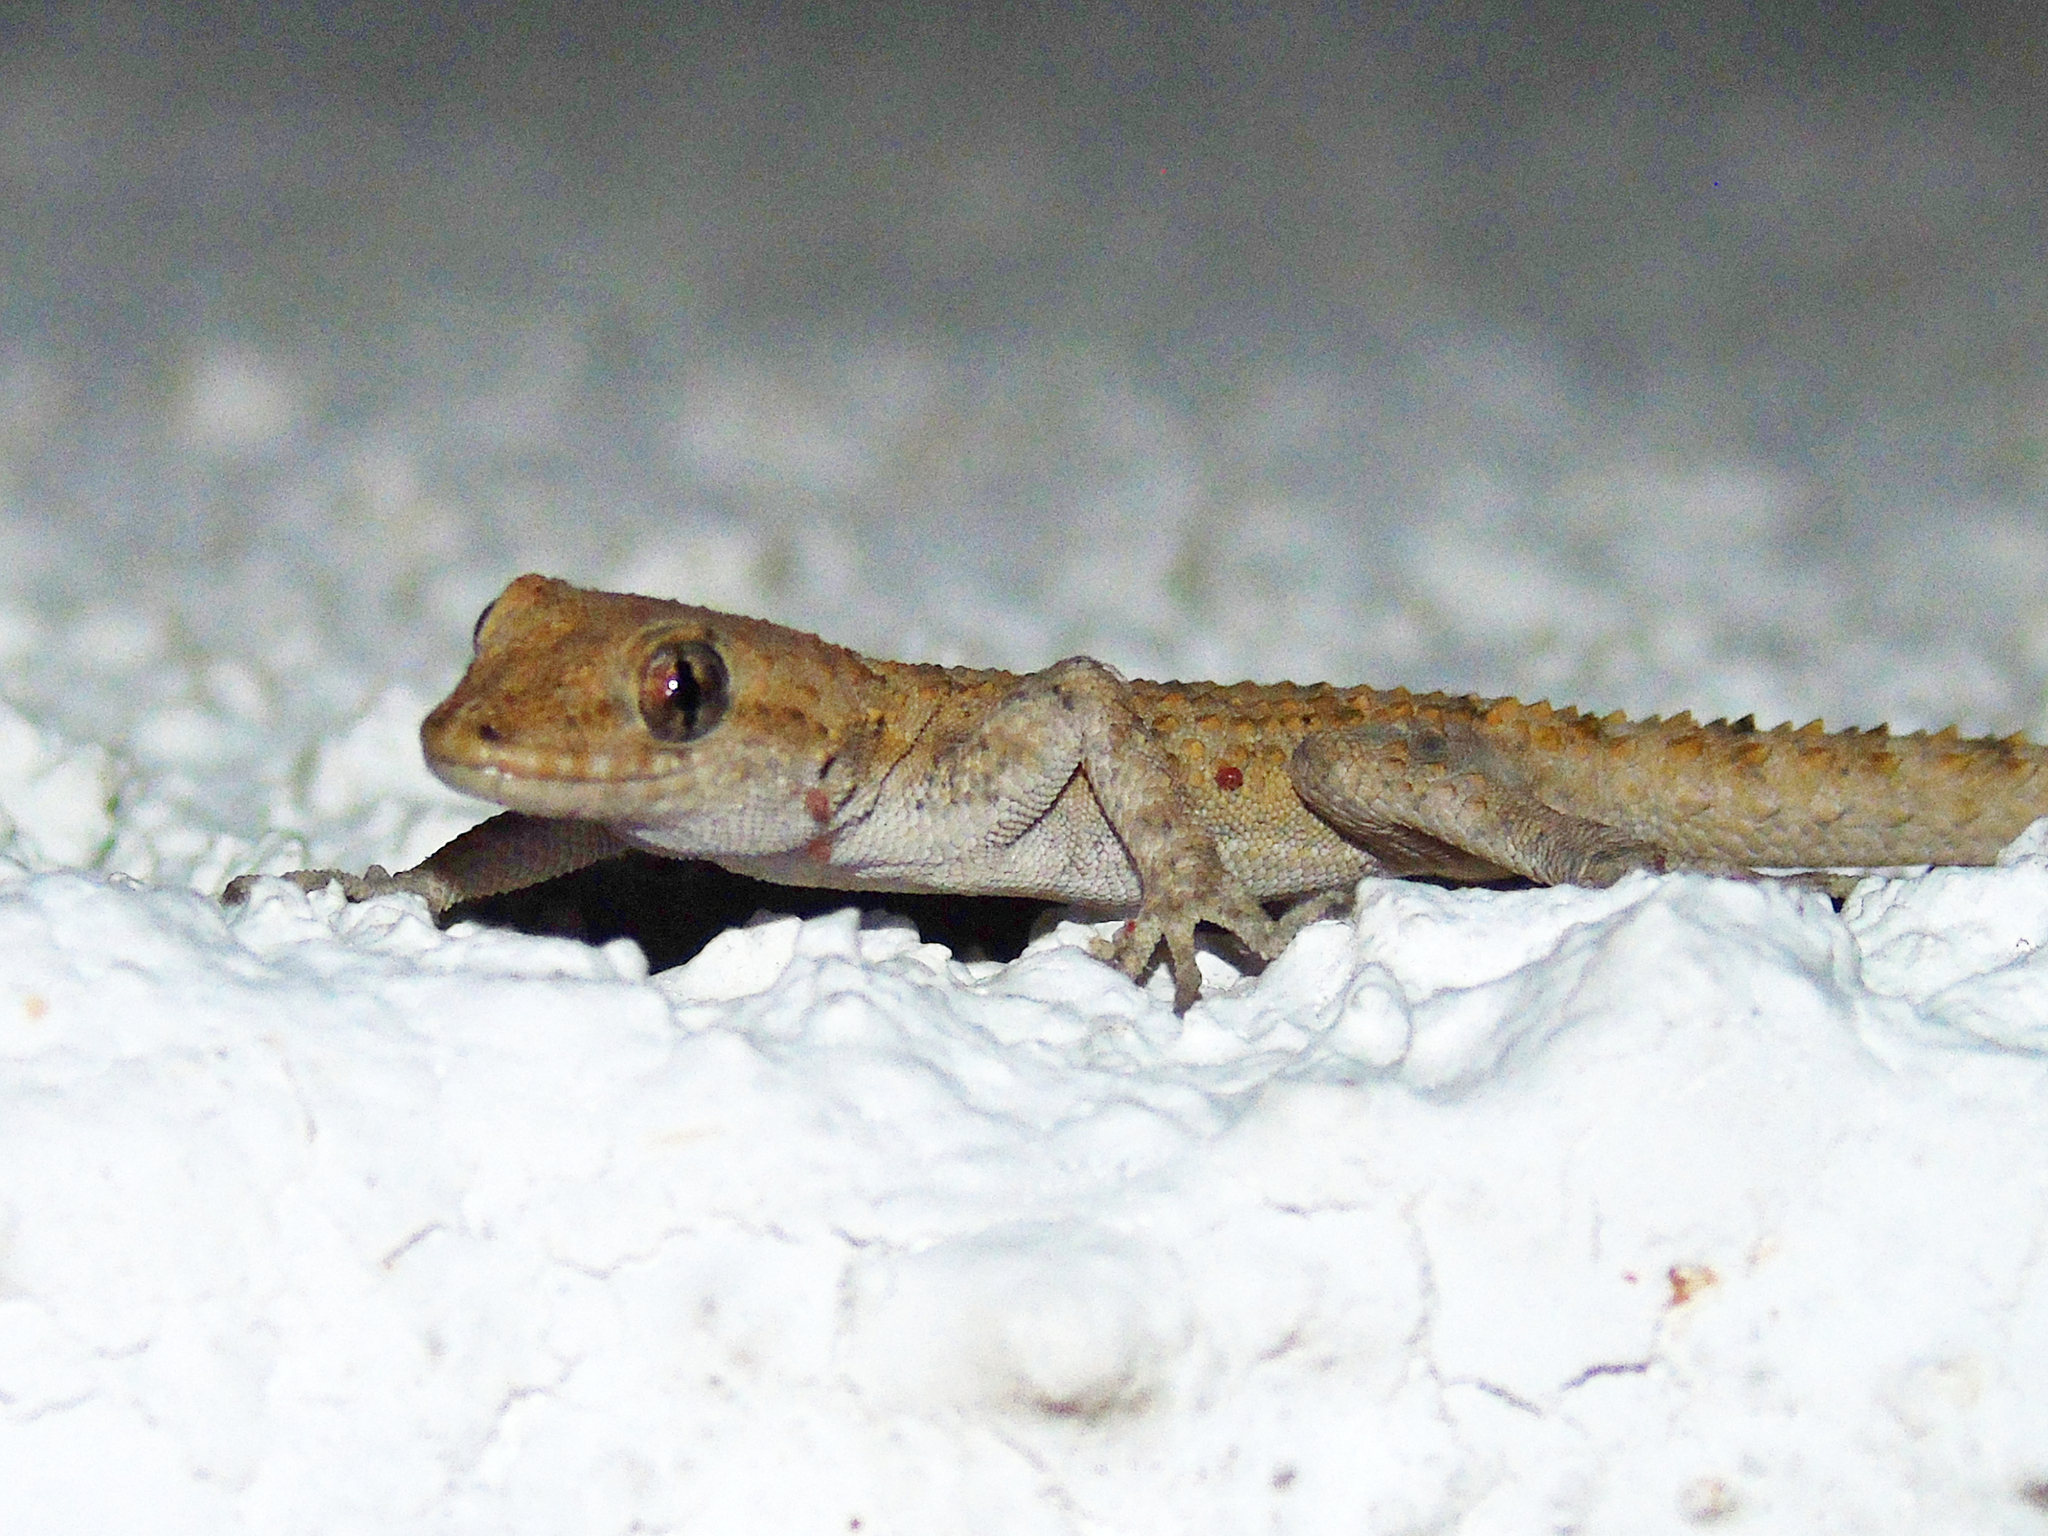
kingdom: Animalia
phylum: Chordata
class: Squamata
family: Gekkonidae
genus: Mediodactylus
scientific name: Mediodactylus kotschyi
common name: Kotschy's gecko
